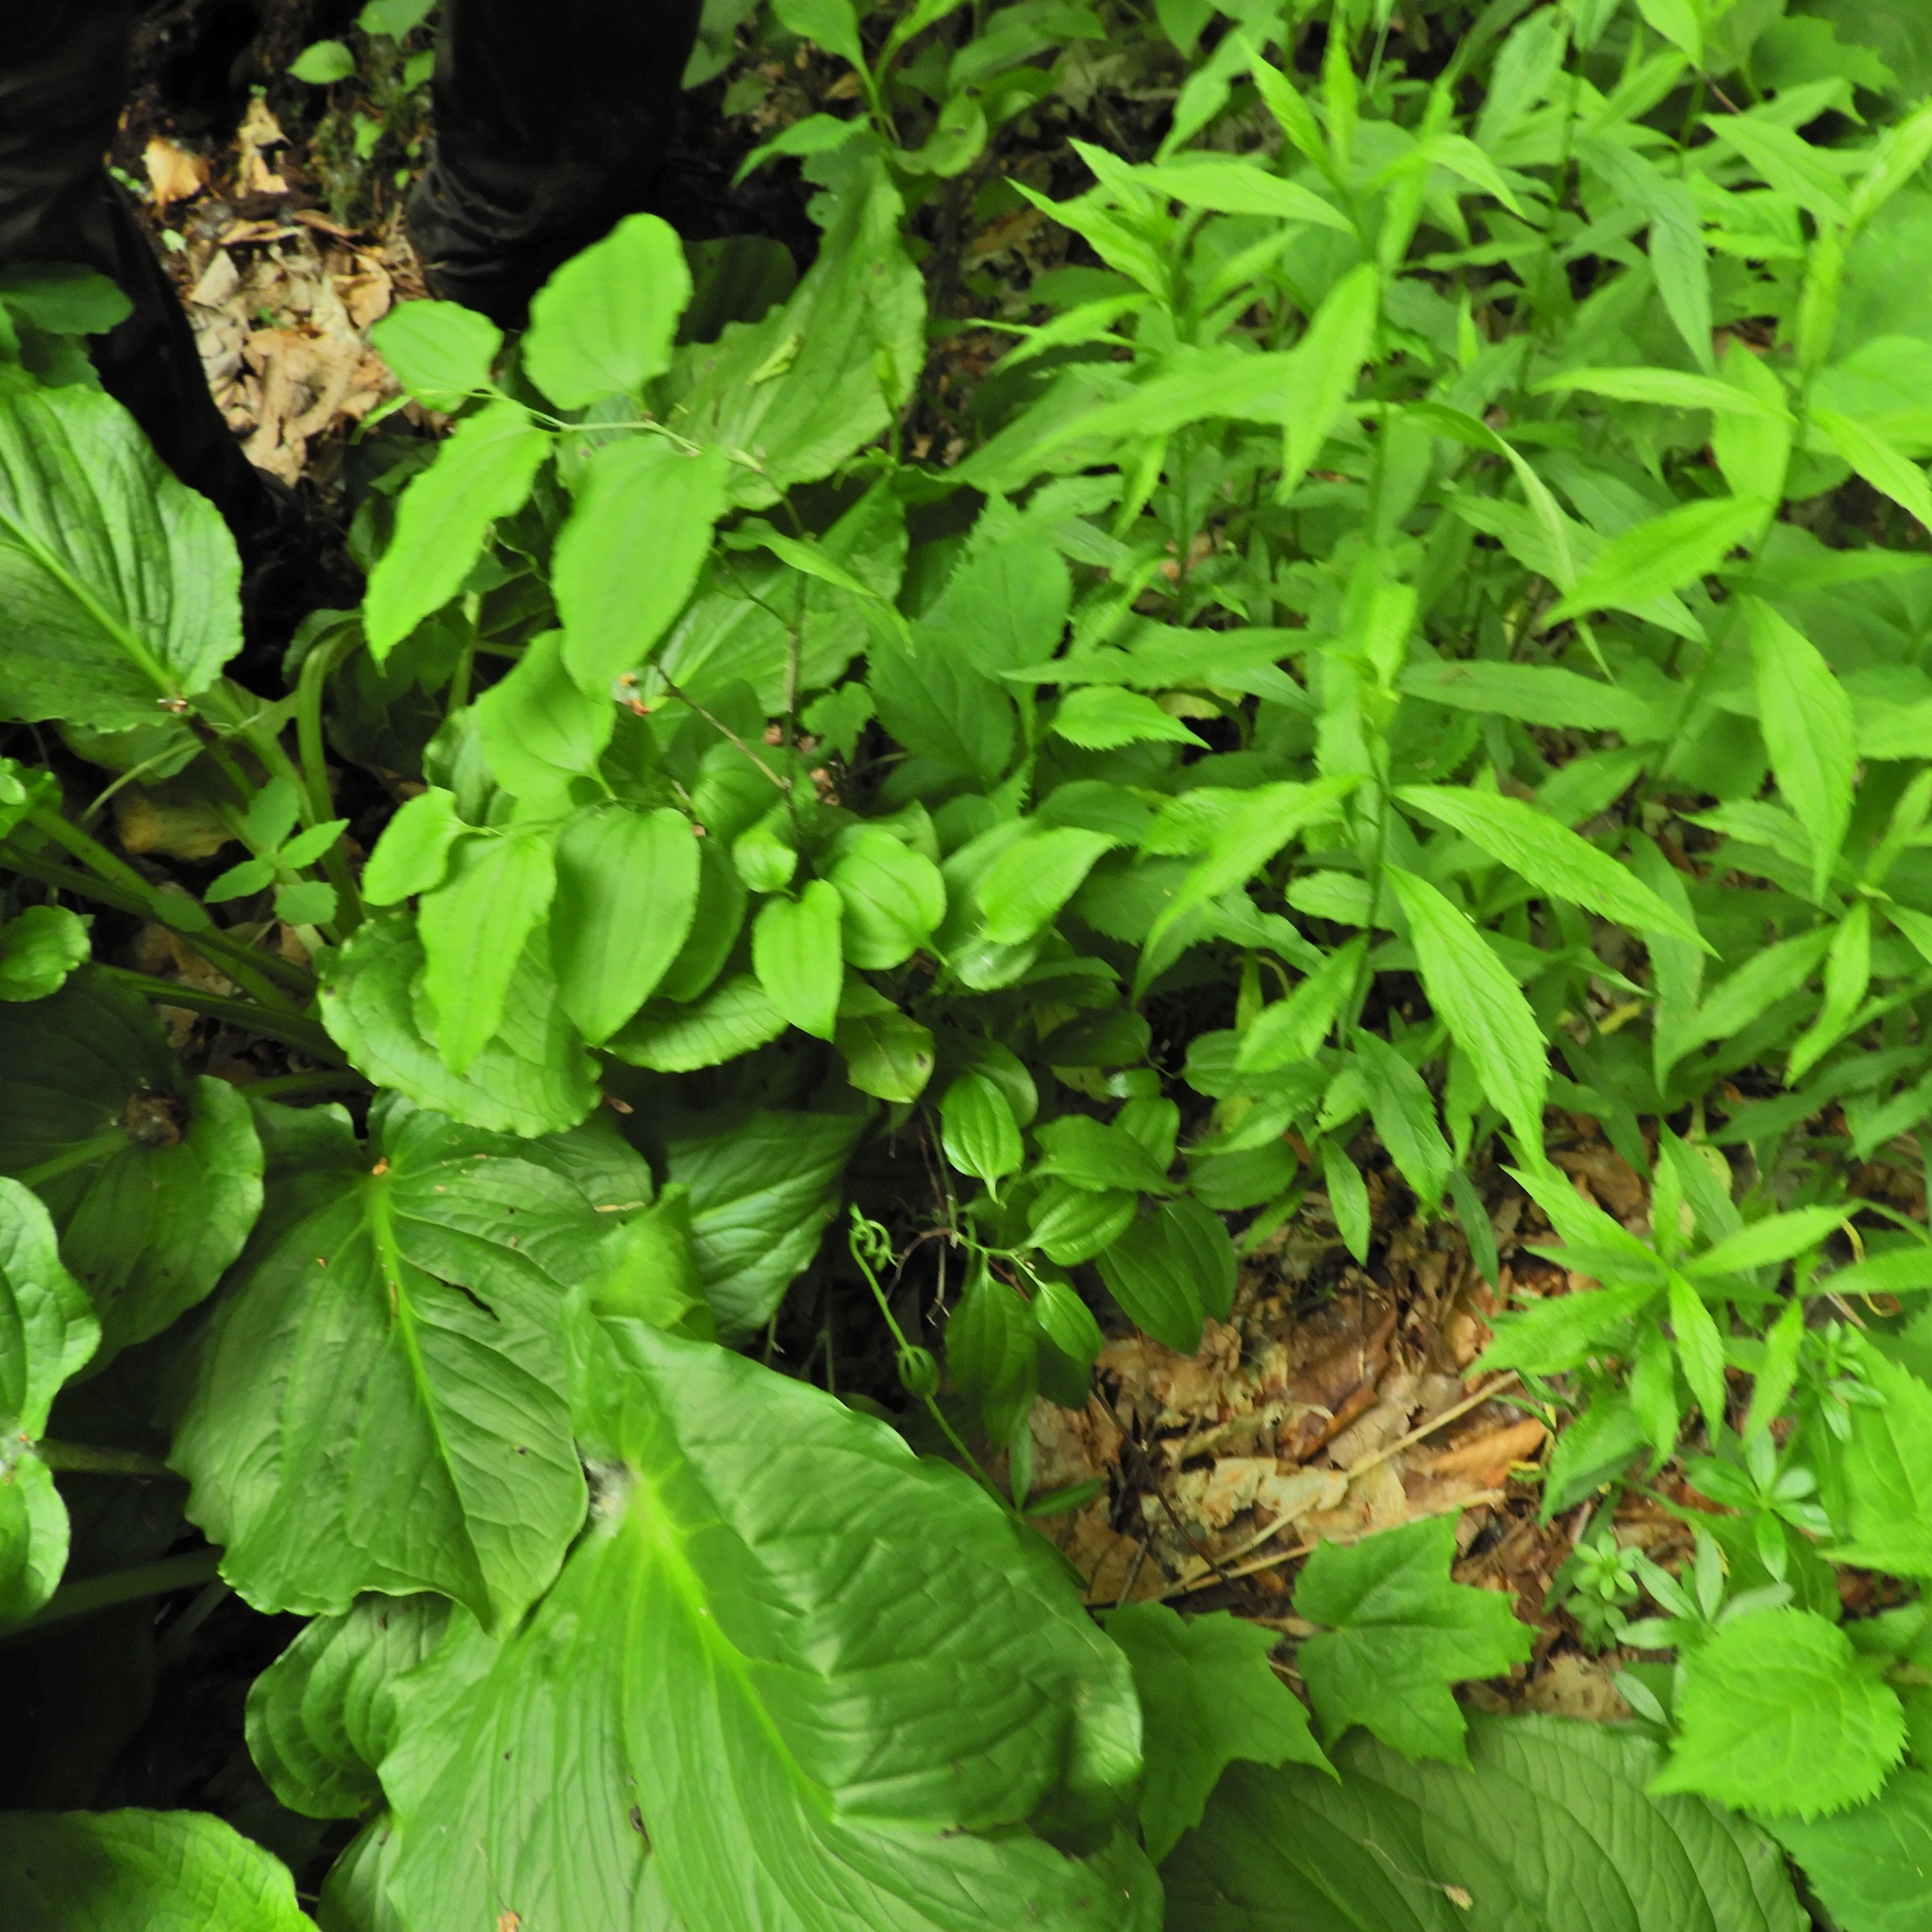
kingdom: Plantae
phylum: Tracheophyta
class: Liliopsida
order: Liliales
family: Smilacaceae
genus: Smilax
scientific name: Smilax tamnoides
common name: Hellfetter
